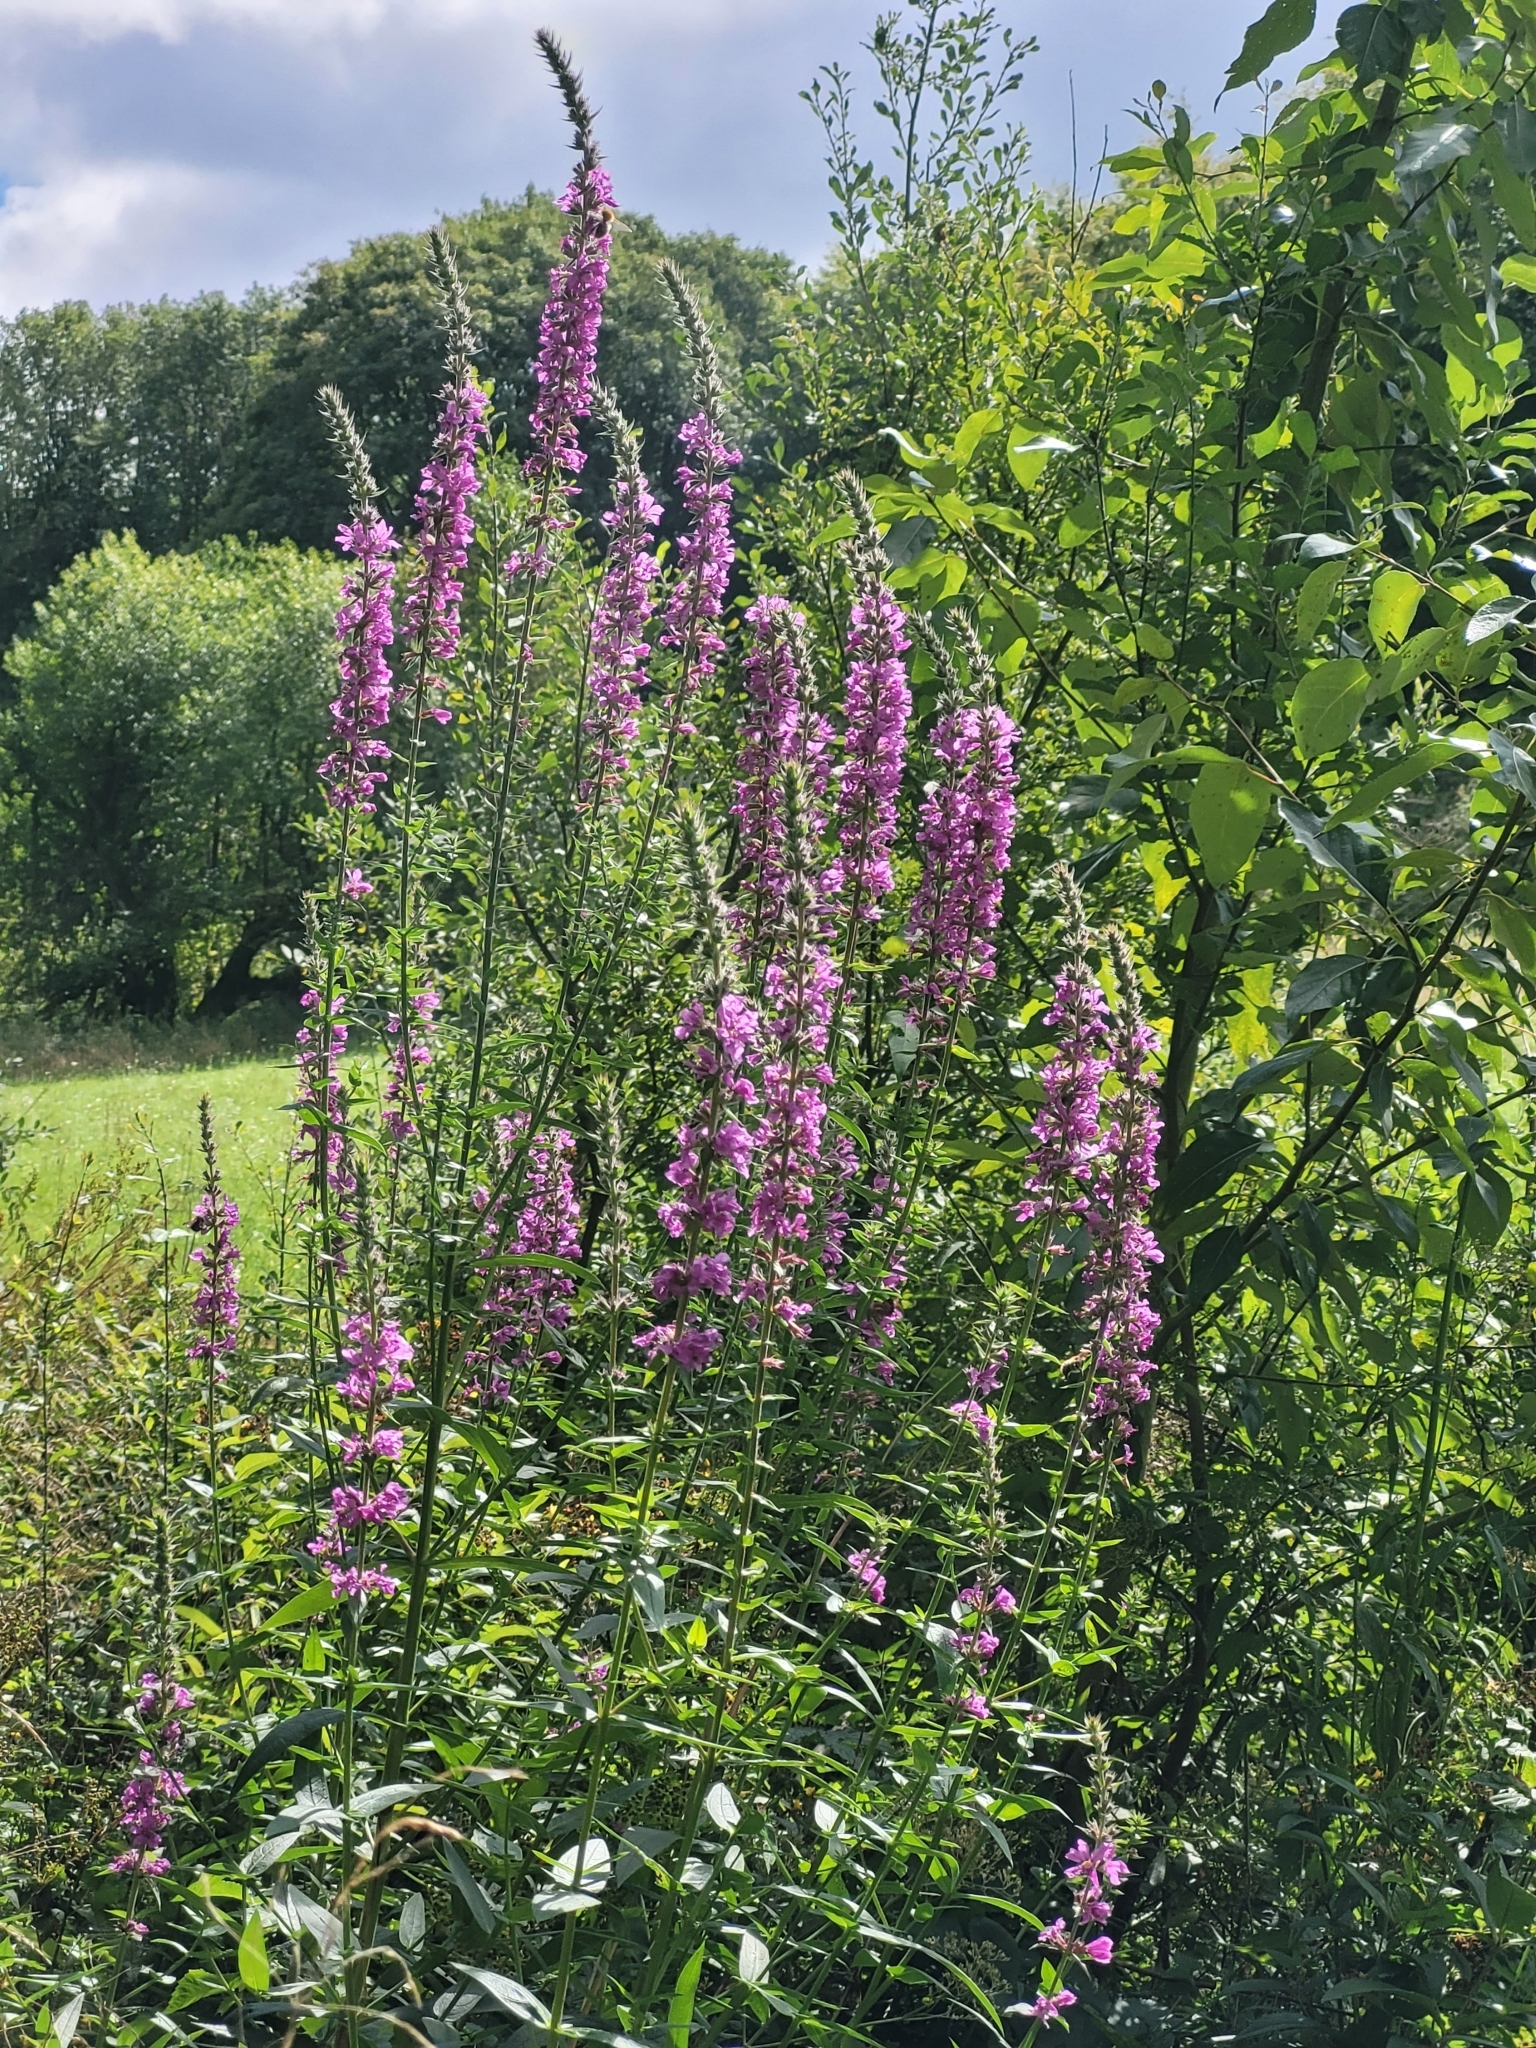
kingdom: Plantae
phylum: Tracheophyta
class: Magnoliopsida
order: Myrtales
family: Lythraceae
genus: Lythrum
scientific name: Lythrum salicaria
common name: Purple loosestrife
